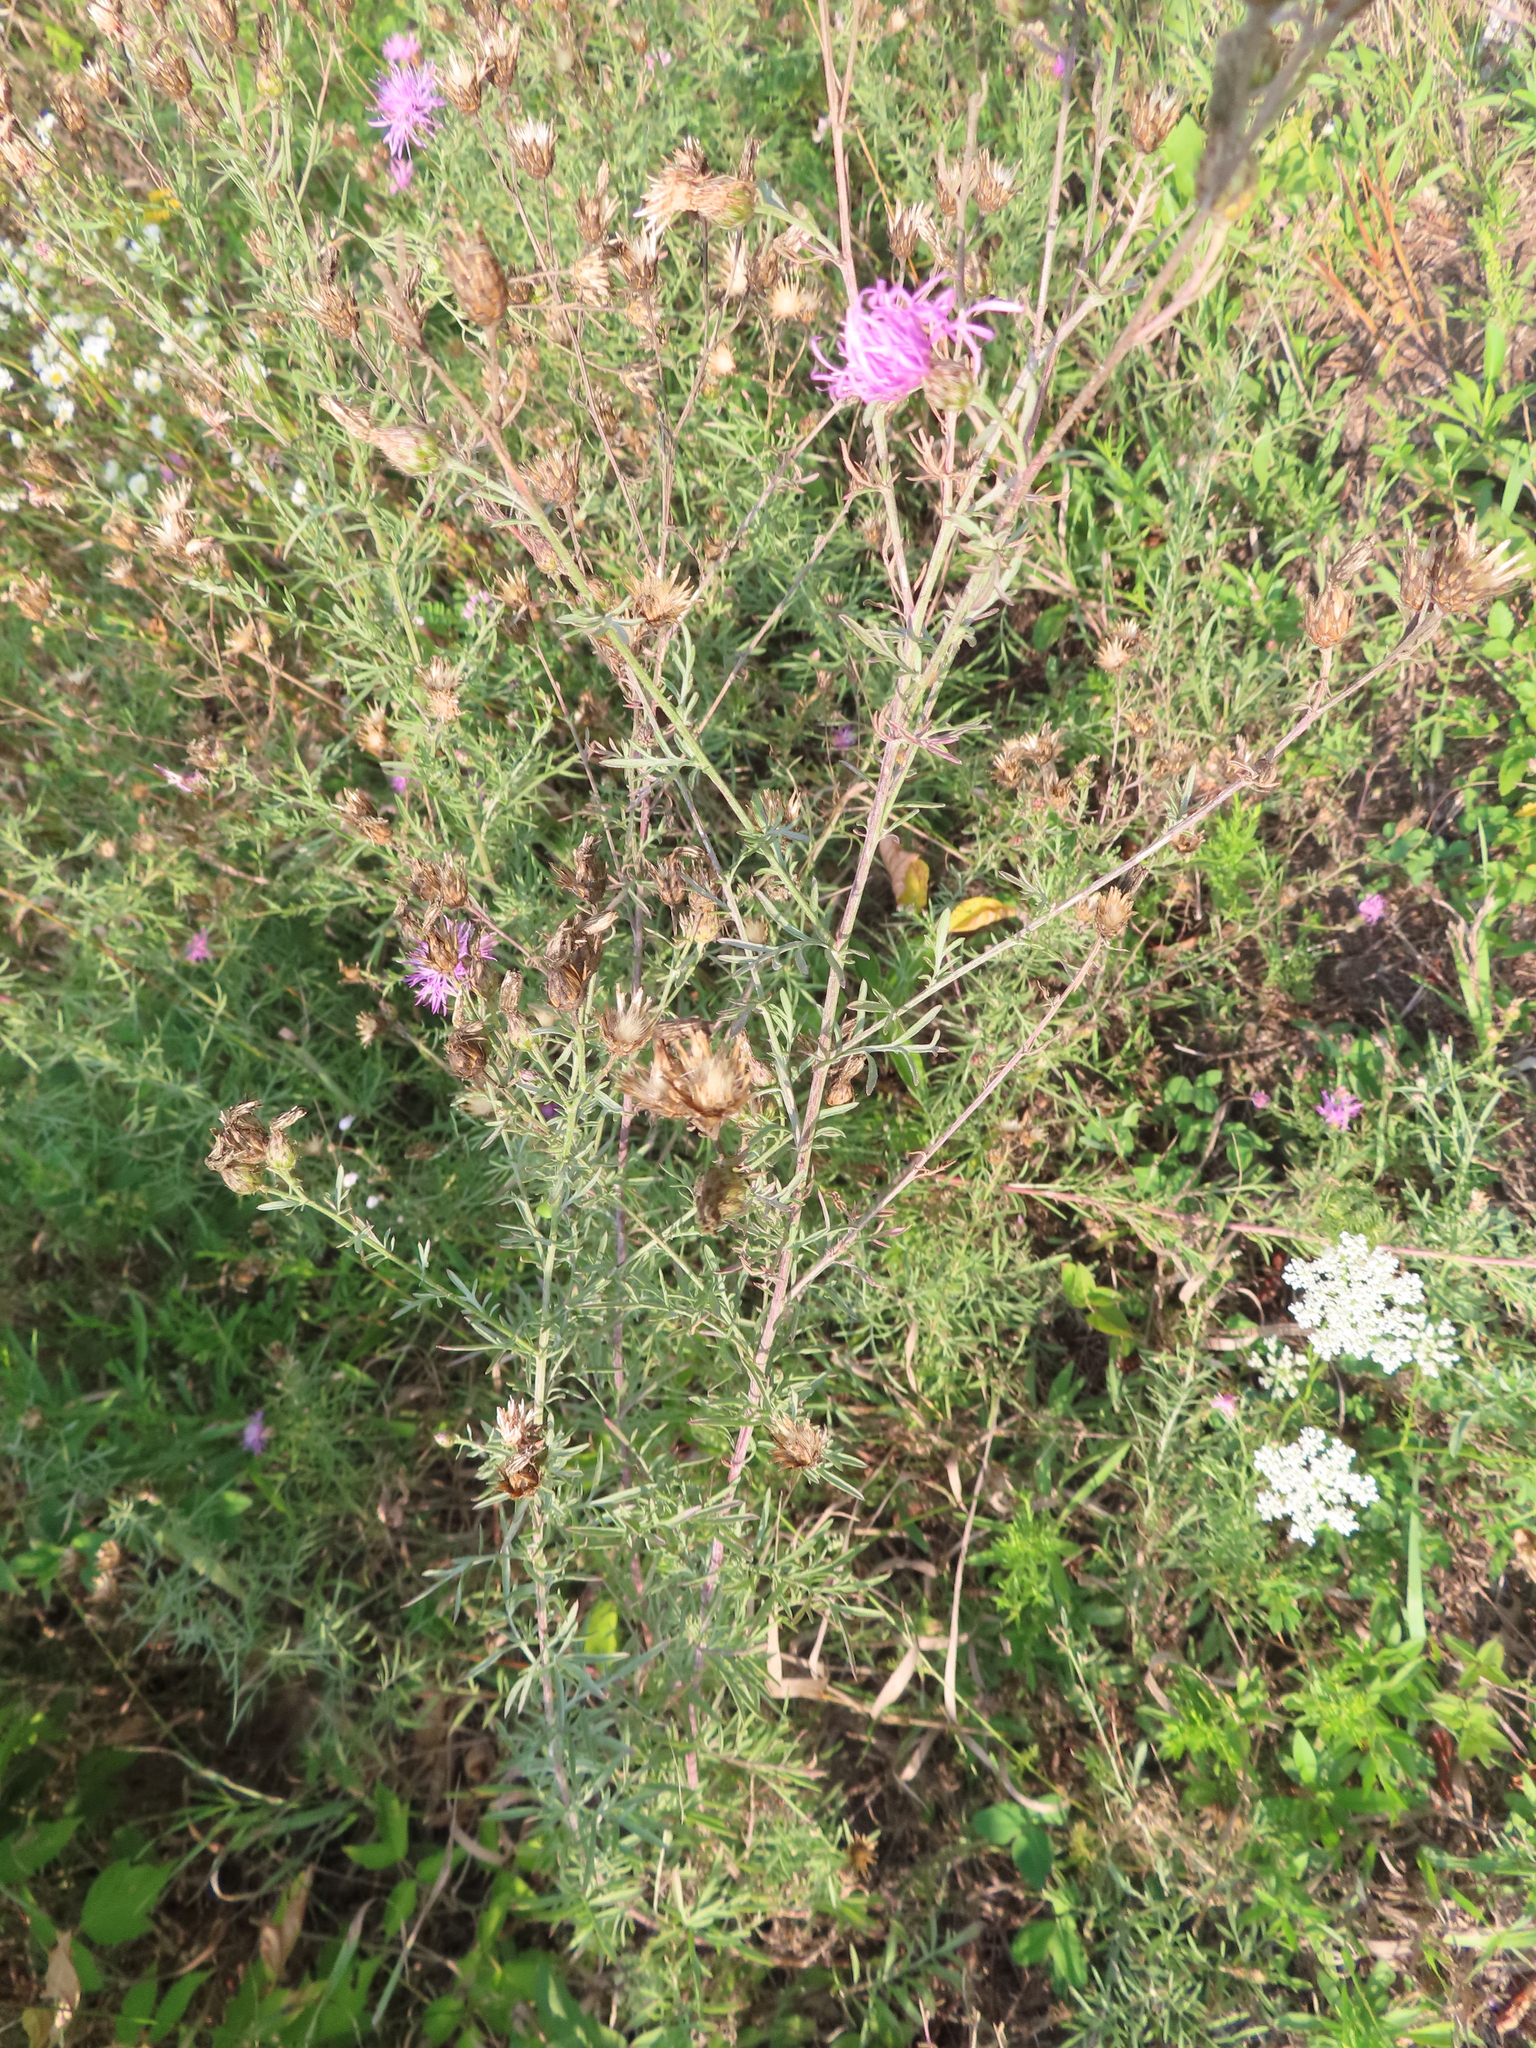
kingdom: Plantae
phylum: Tracheophyta
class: Magnoliopsida
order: Asterales
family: Asteraceae
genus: Centaurea
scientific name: Centaurea stoebe
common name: Spotted knapweed
